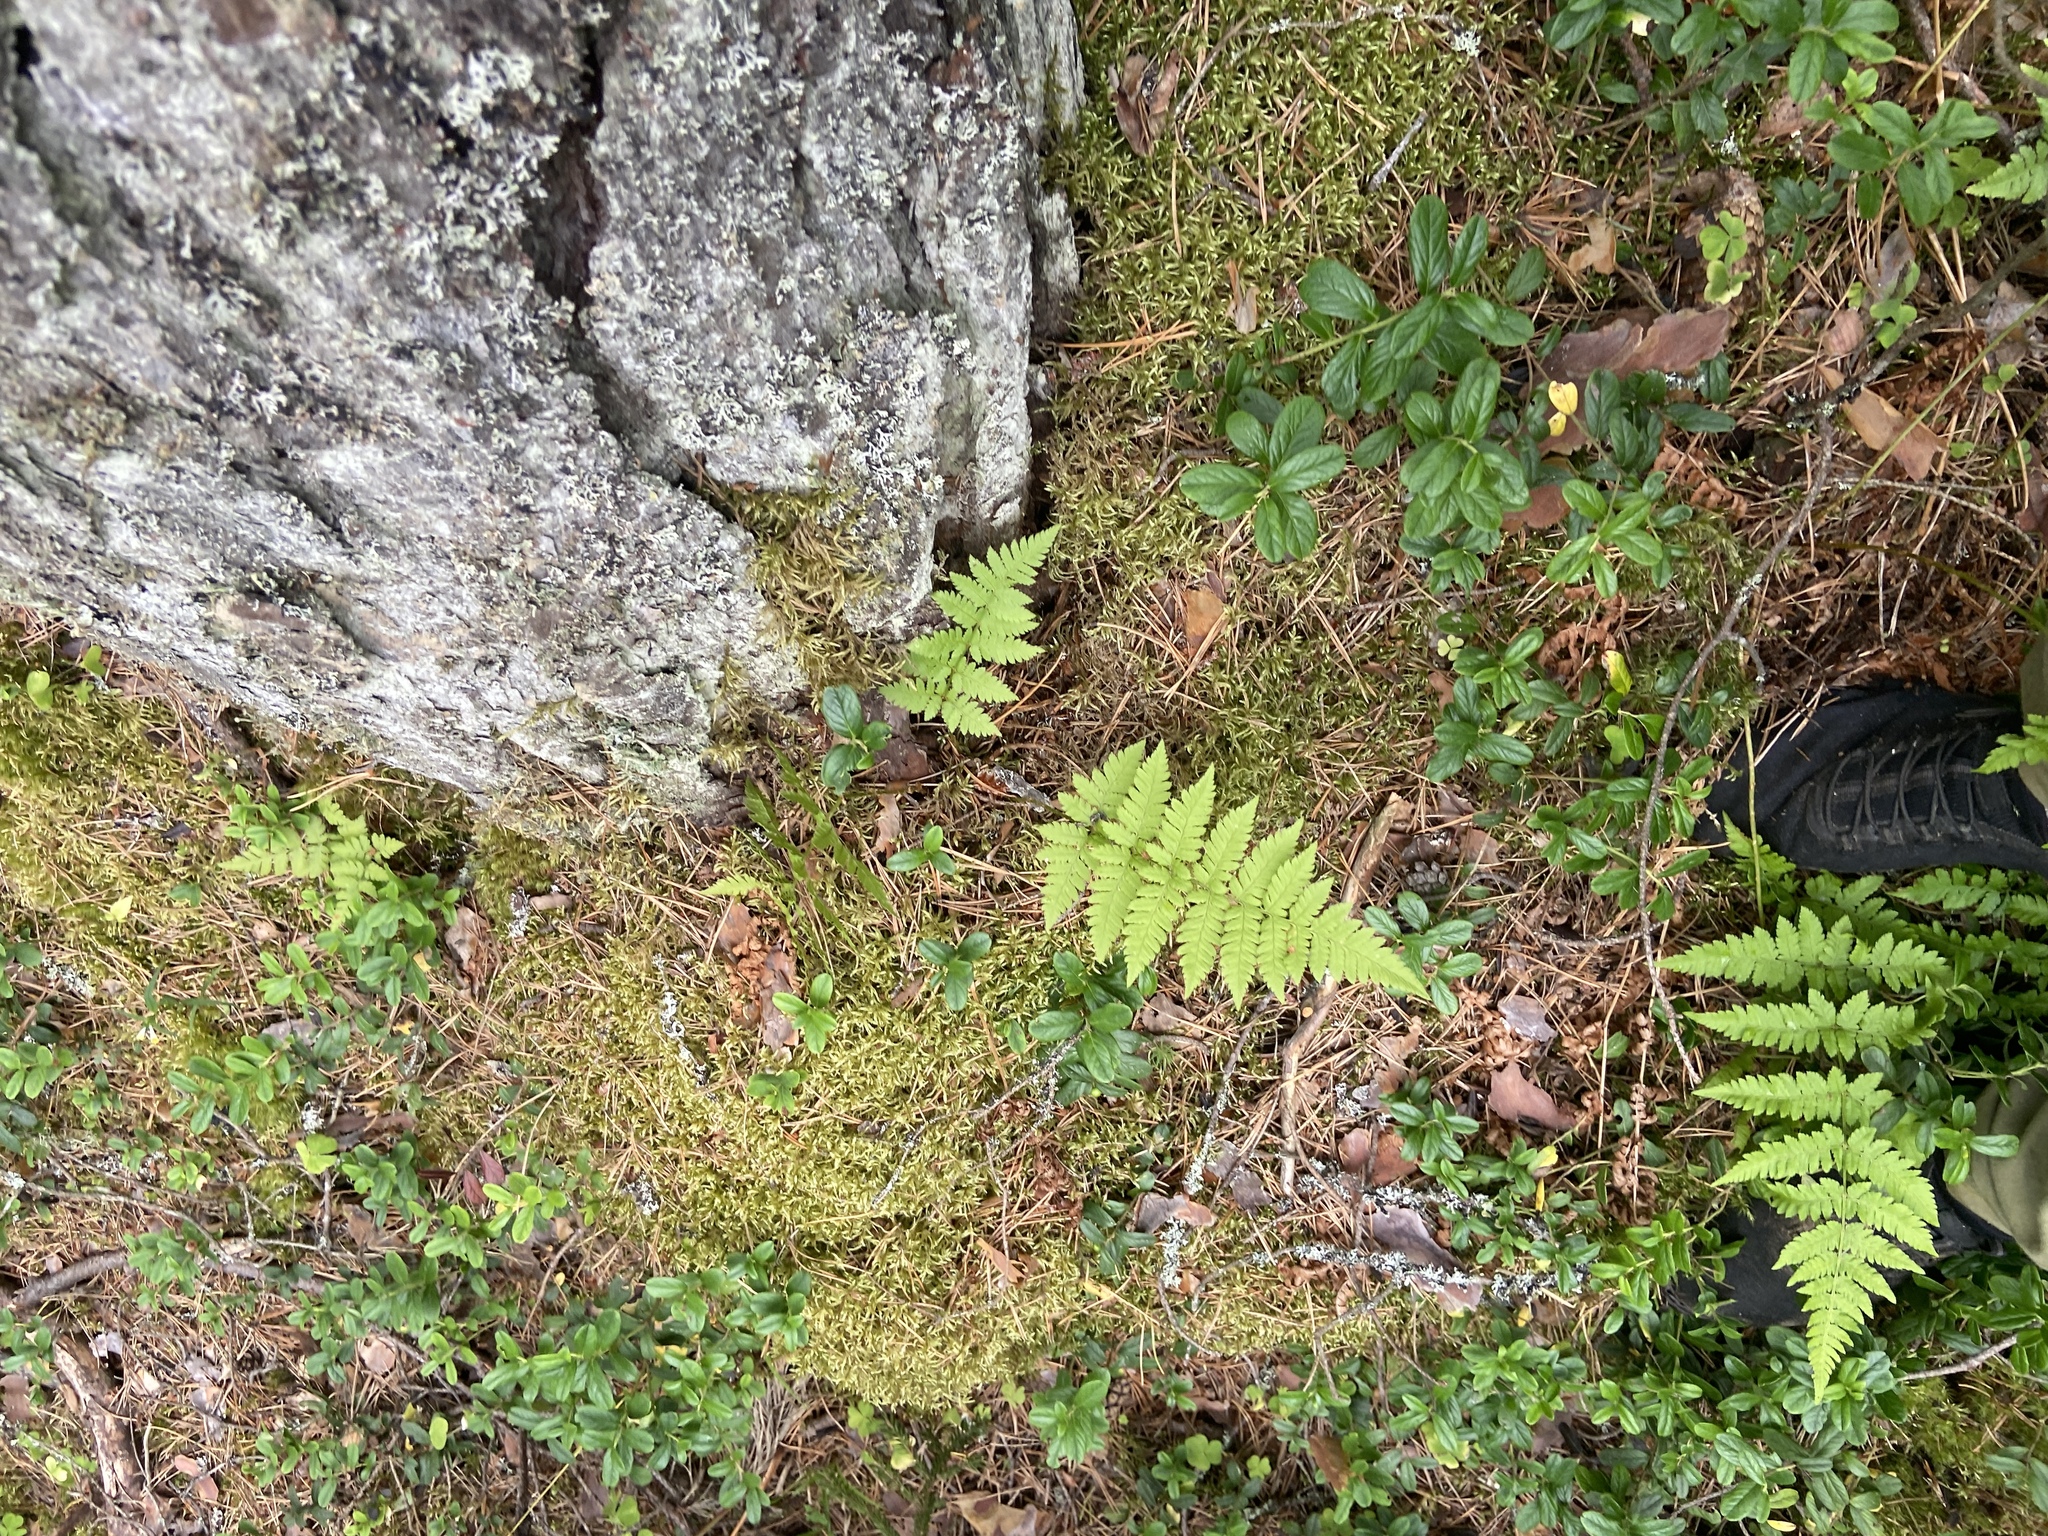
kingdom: Plantae
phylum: Tracheophyta
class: Polypodiopsida
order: Polypodiales
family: Dryopteridaceae
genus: Dryopteris
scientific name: Dryopteris carthusiana
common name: Narrow buckler-fern
